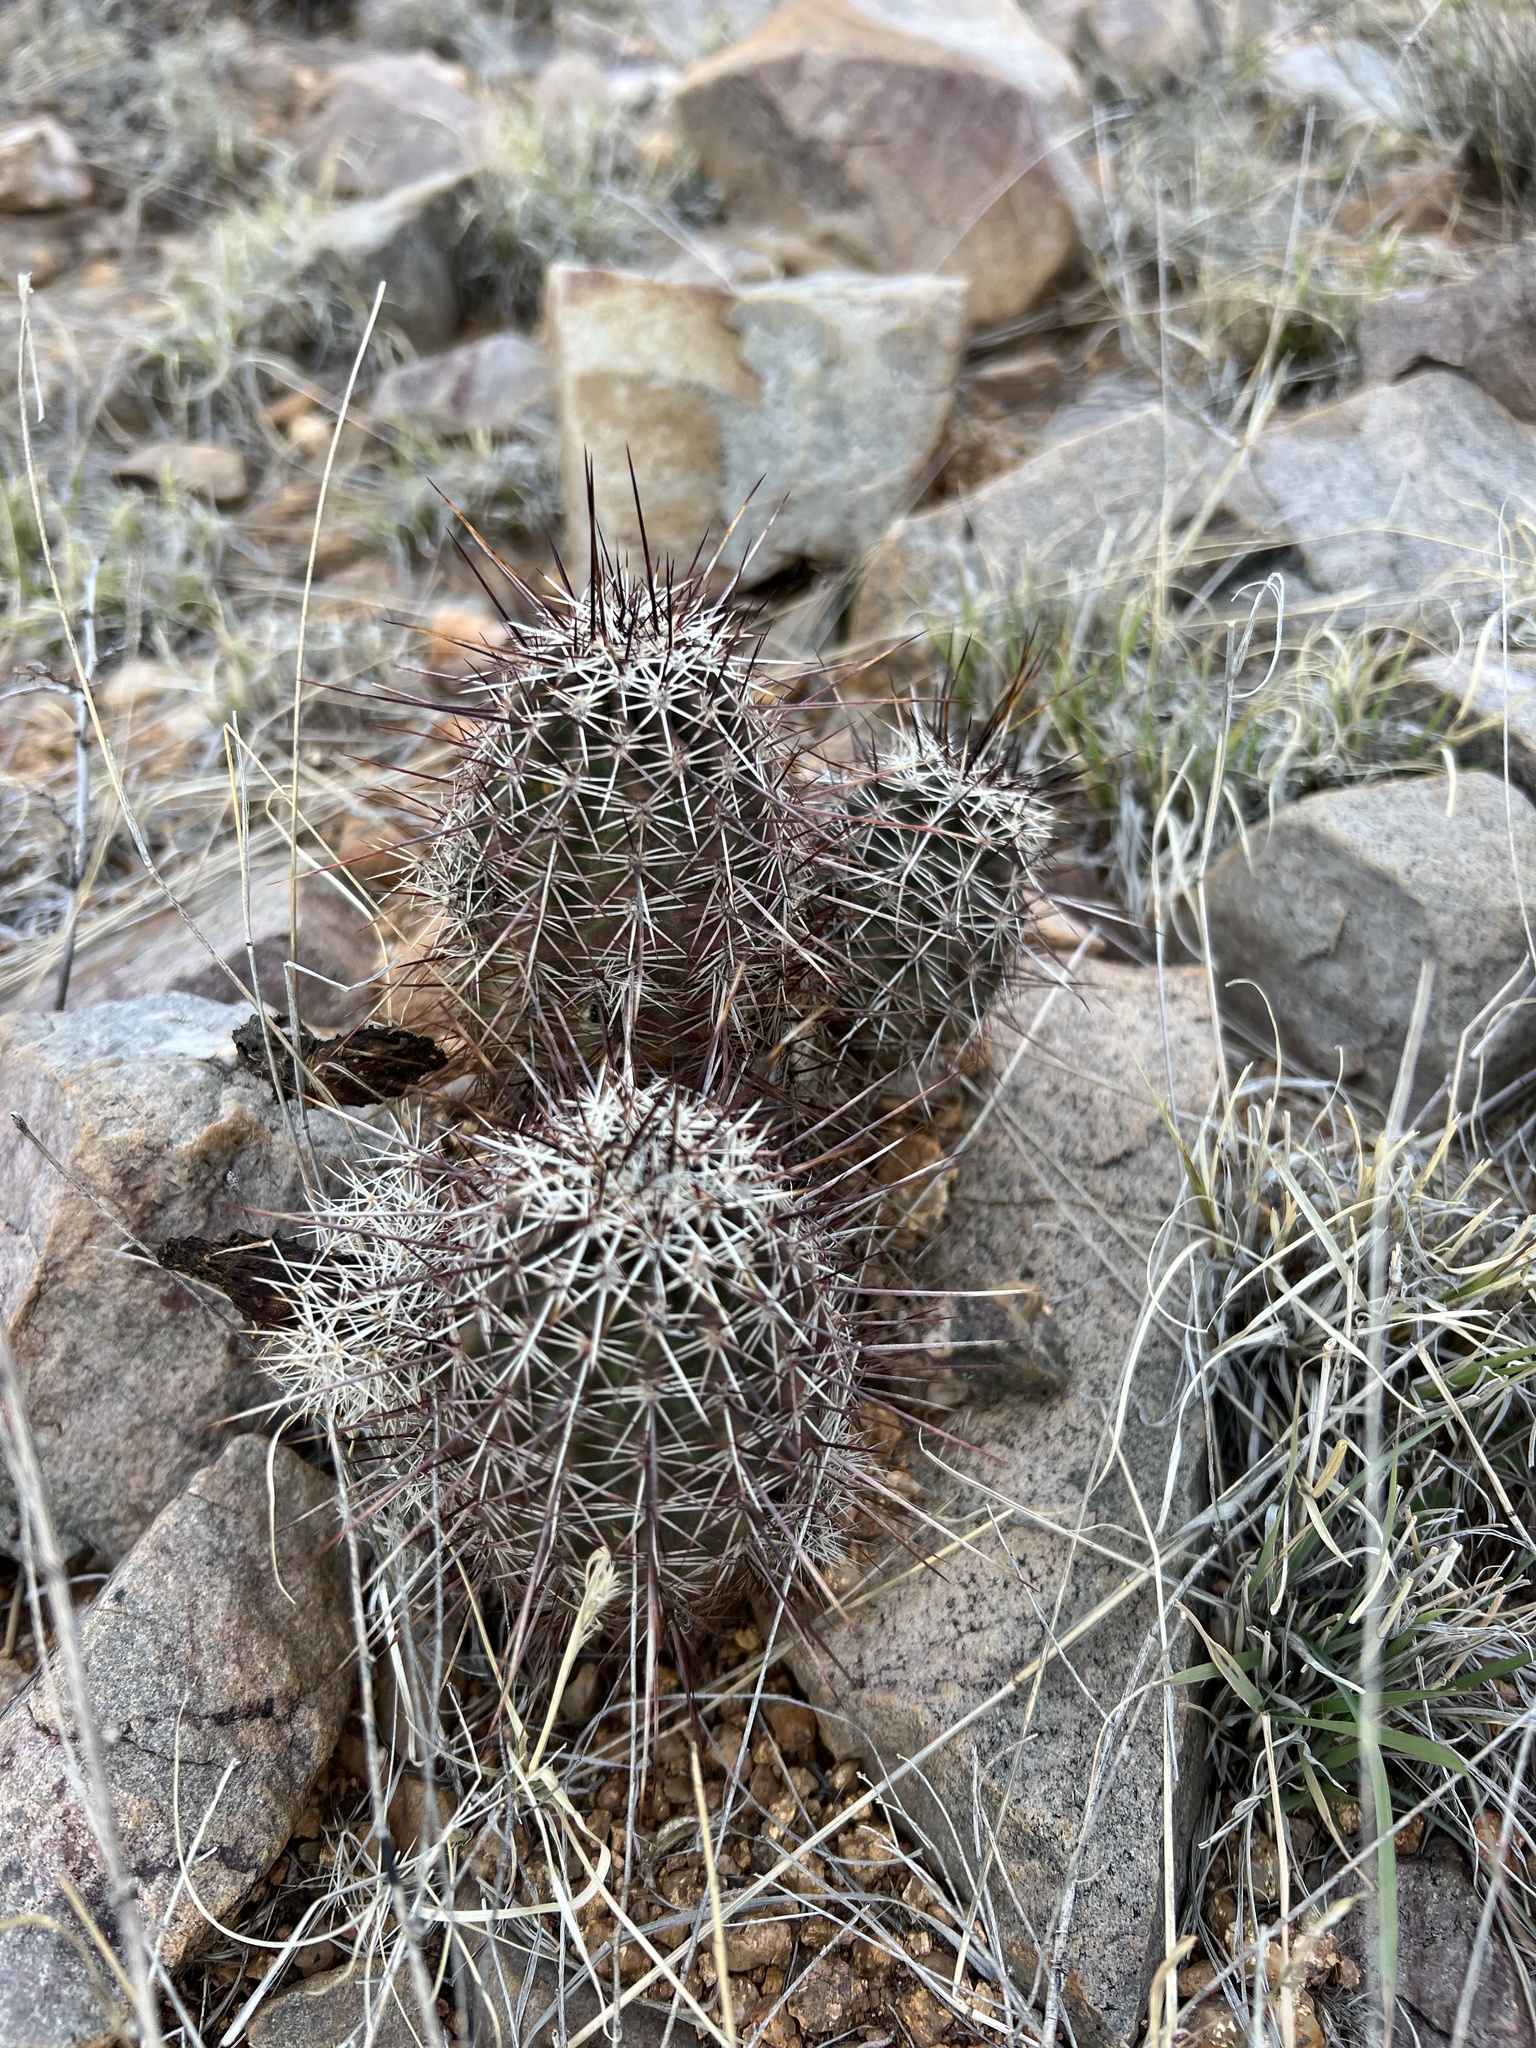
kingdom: Plantae
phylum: Tracheophyta
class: Magnoliopsida
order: Caryophyllales
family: Cactaceae
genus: Echinocereus
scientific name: Echinocereus fasciculatus
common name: Bundle hedgehog
